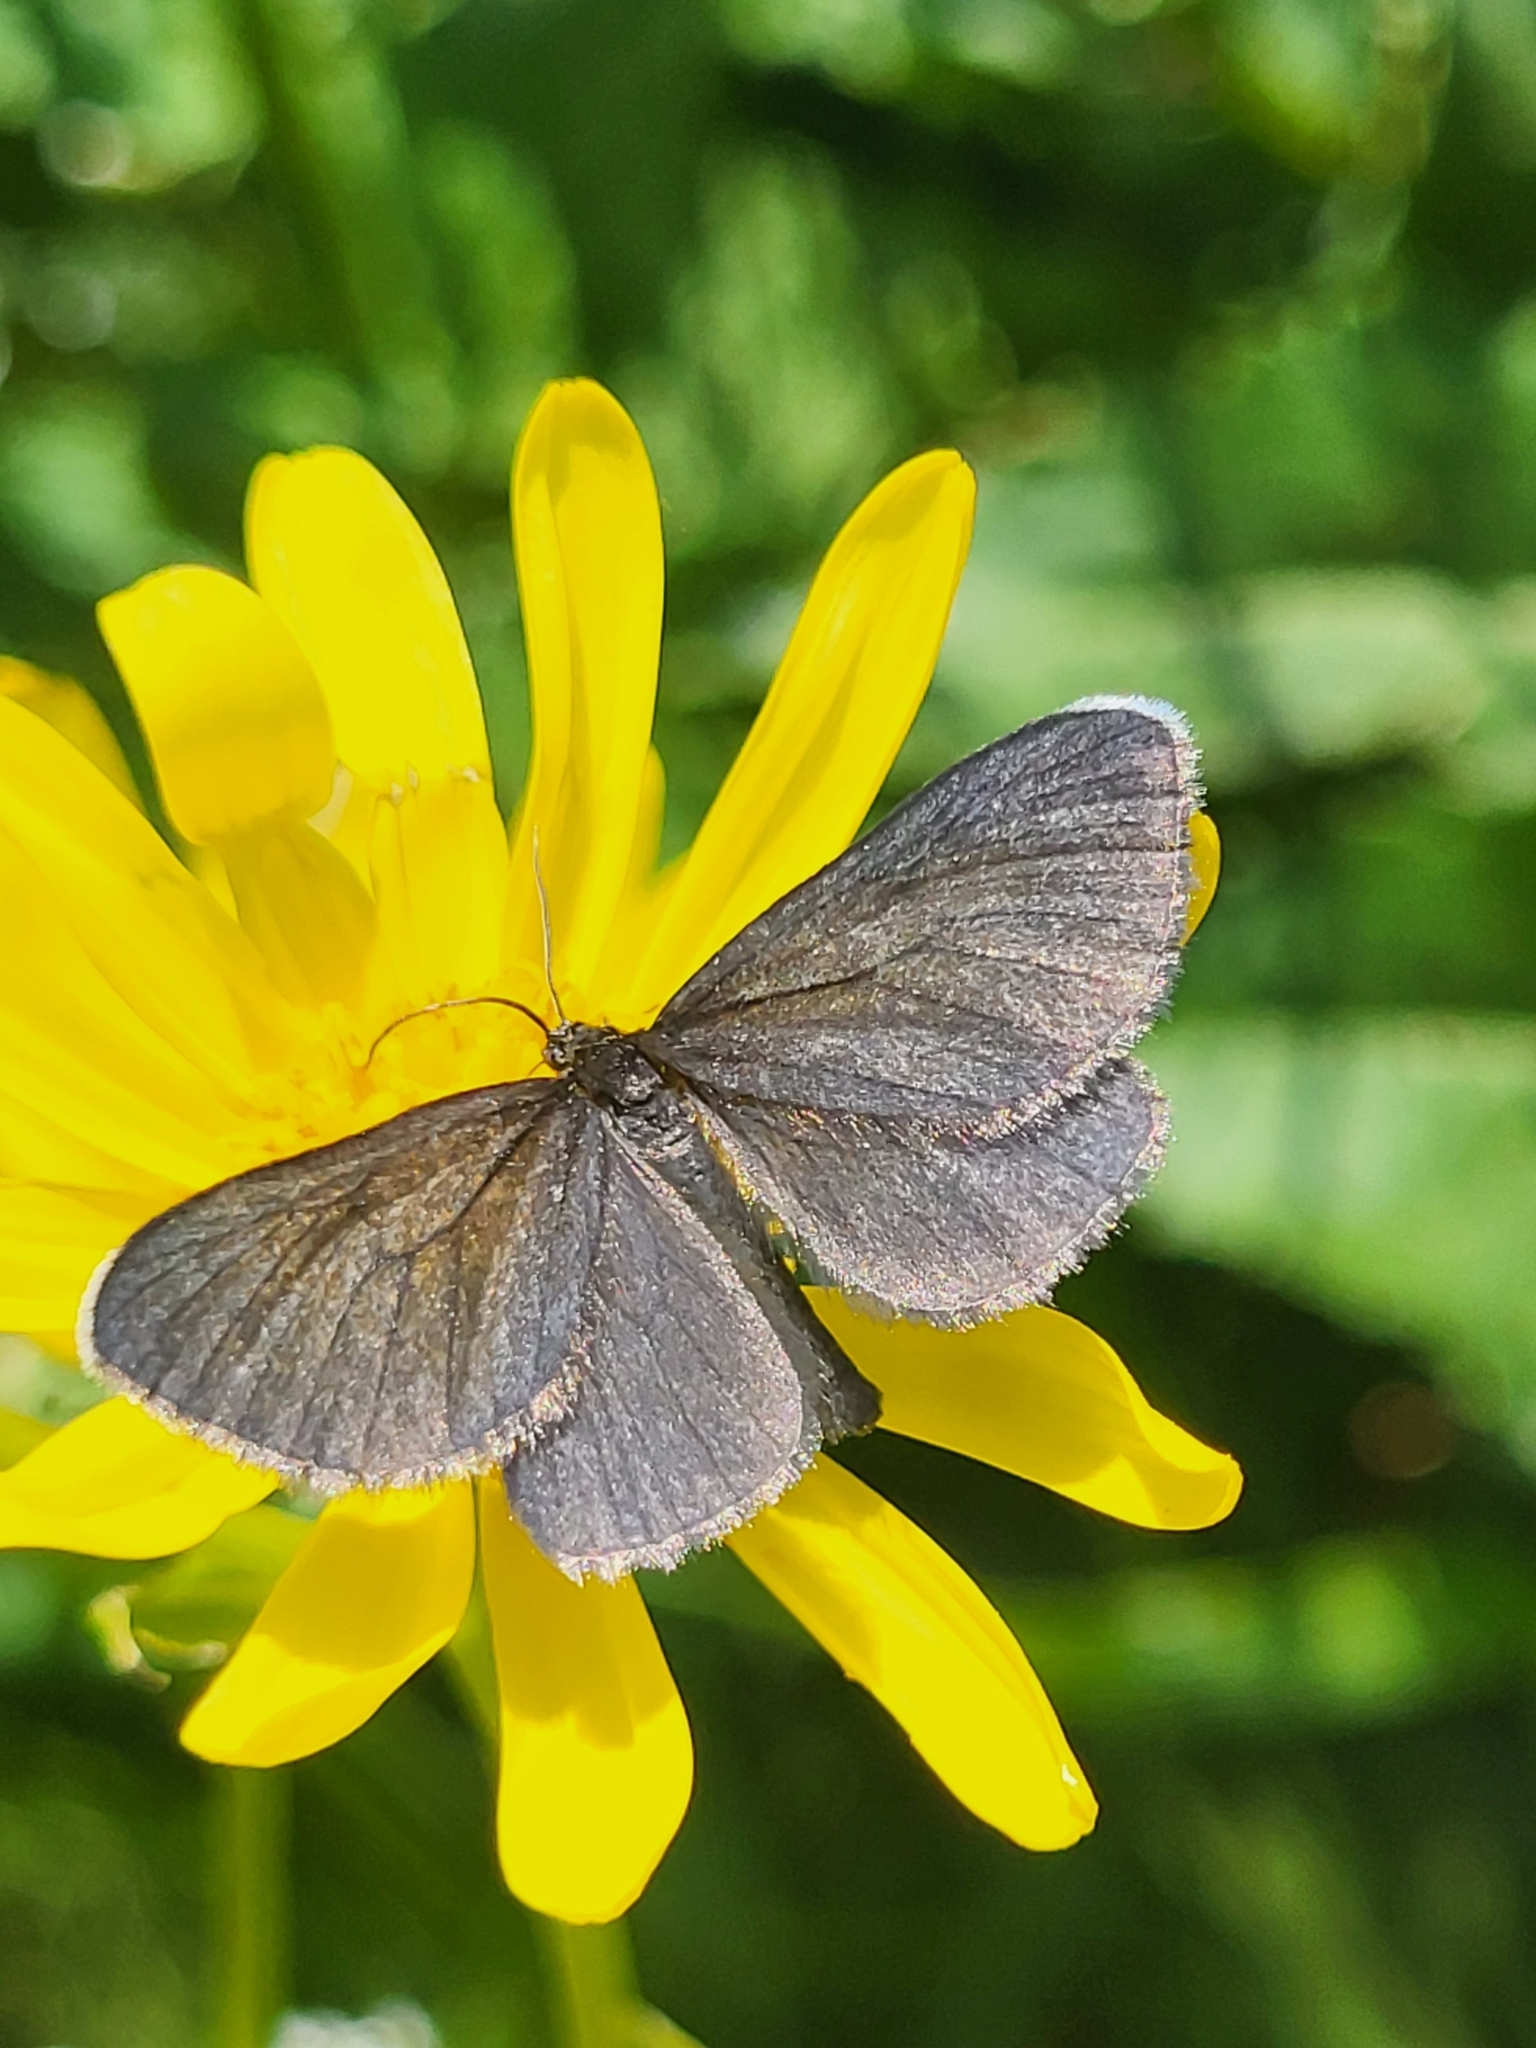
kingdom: Animalia
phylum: Arthropoda
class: Insecta
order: Lepidoptera
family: Geometridae
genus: Odezia
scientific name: Odezia atrata
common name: Chimney sweeper
